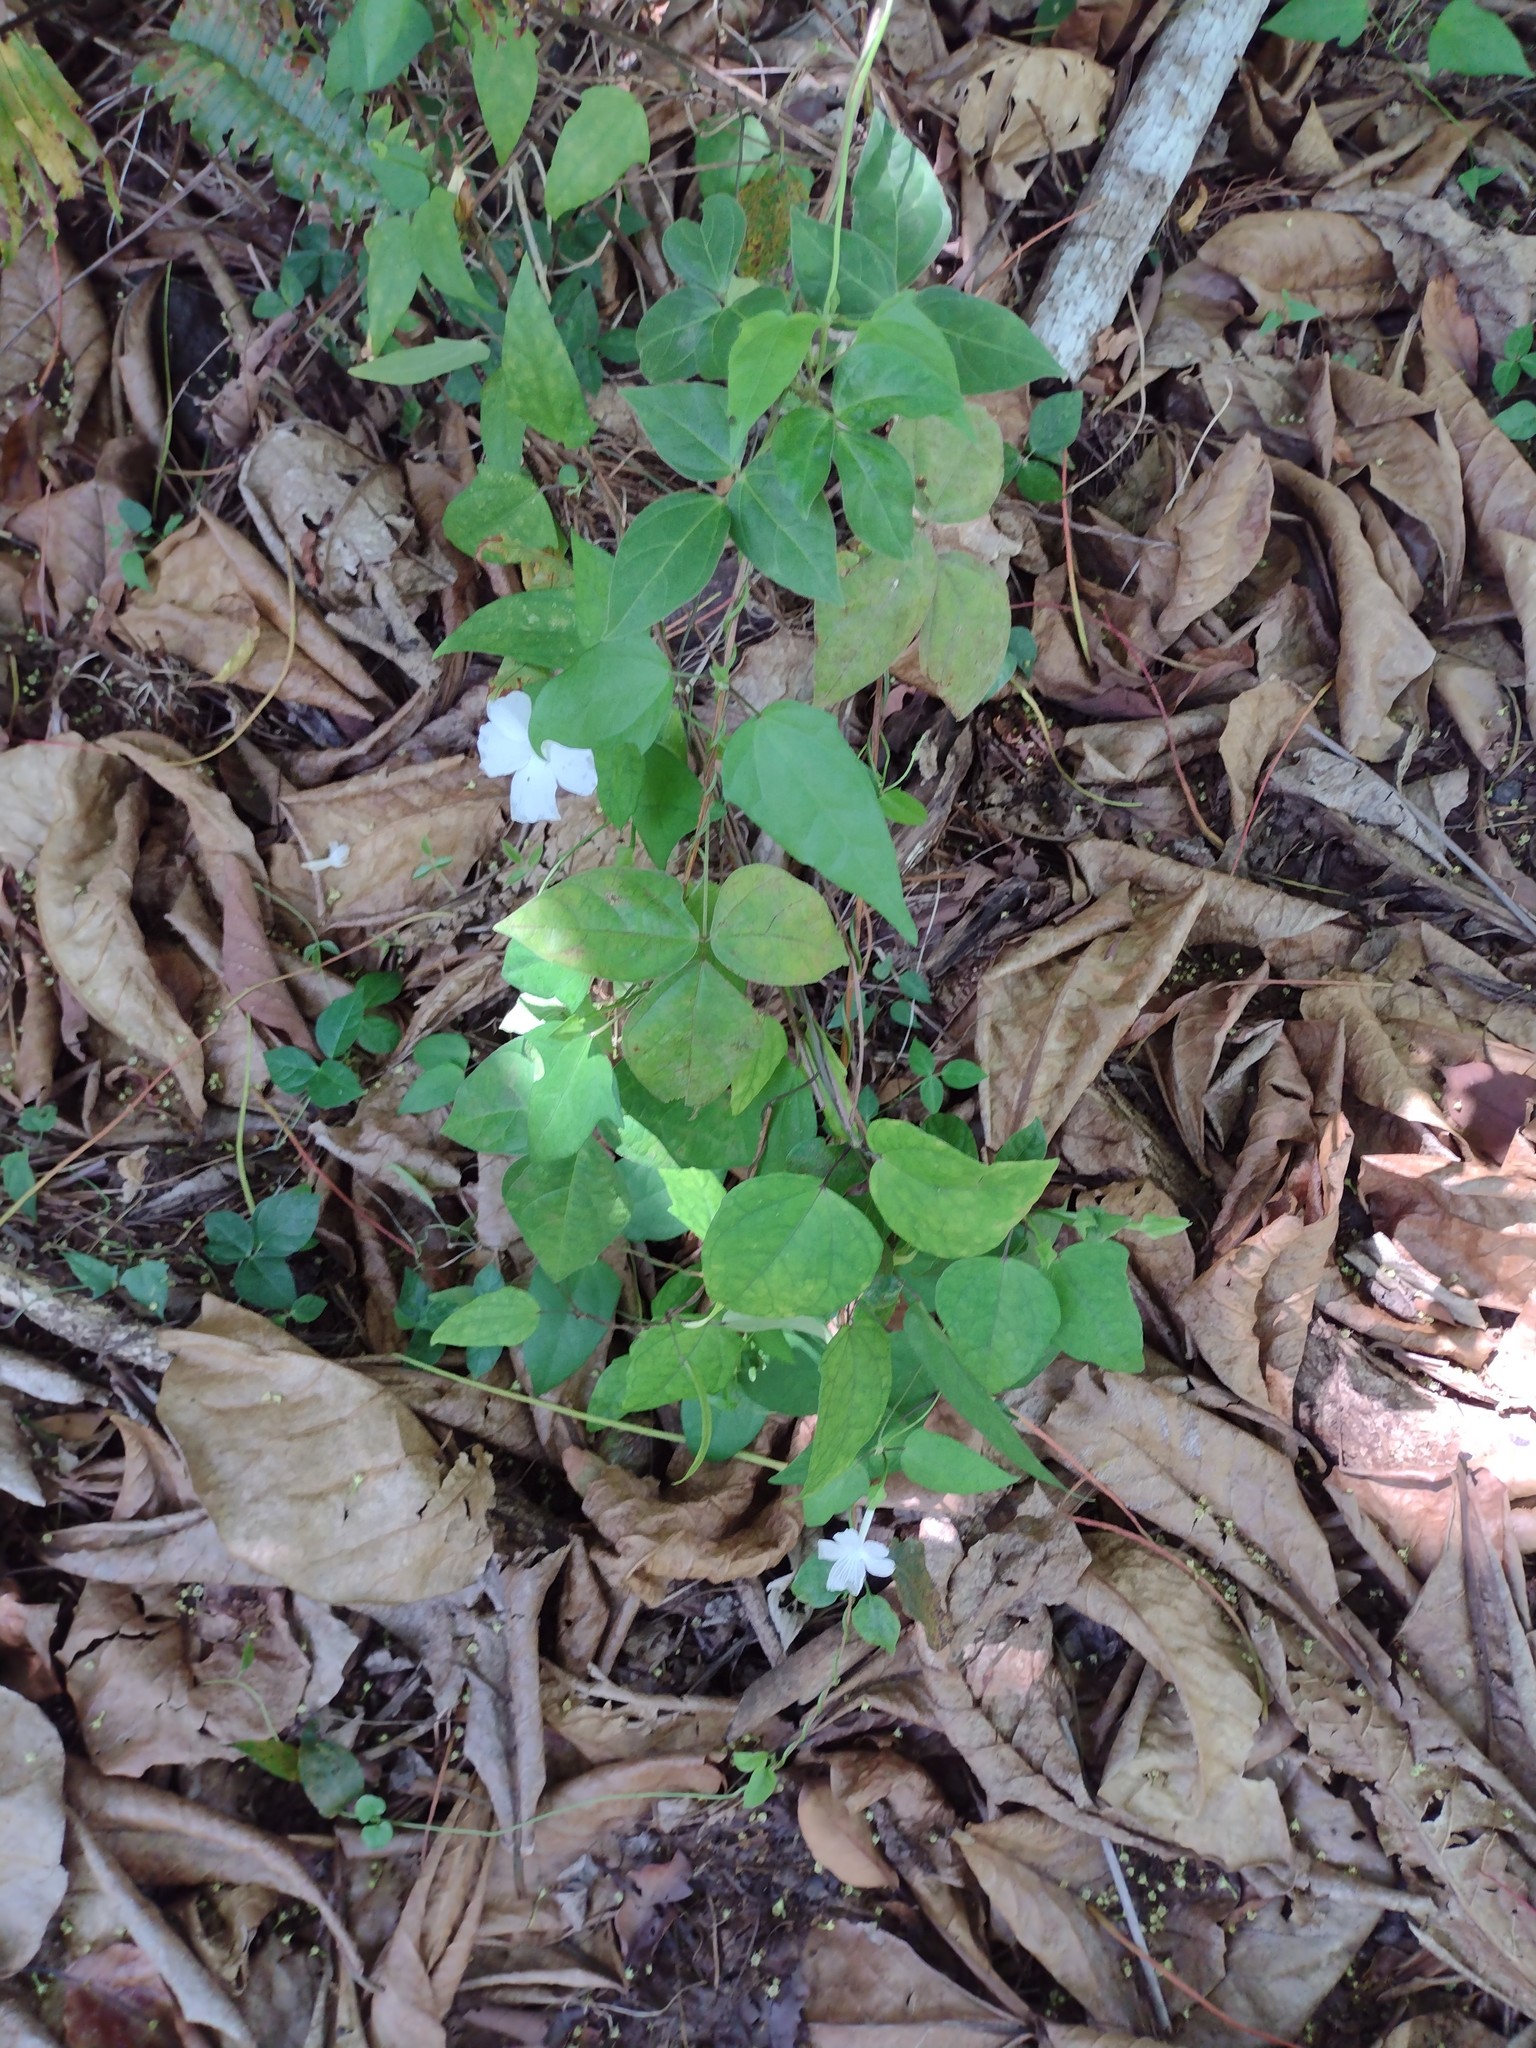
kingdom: Plantae
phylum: Tracheophyta
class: Magnoliopsida
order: Lamiales
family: Acanthaceae
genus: Thunbergia
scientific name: Thunbergia fragrans
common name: Whitelady
